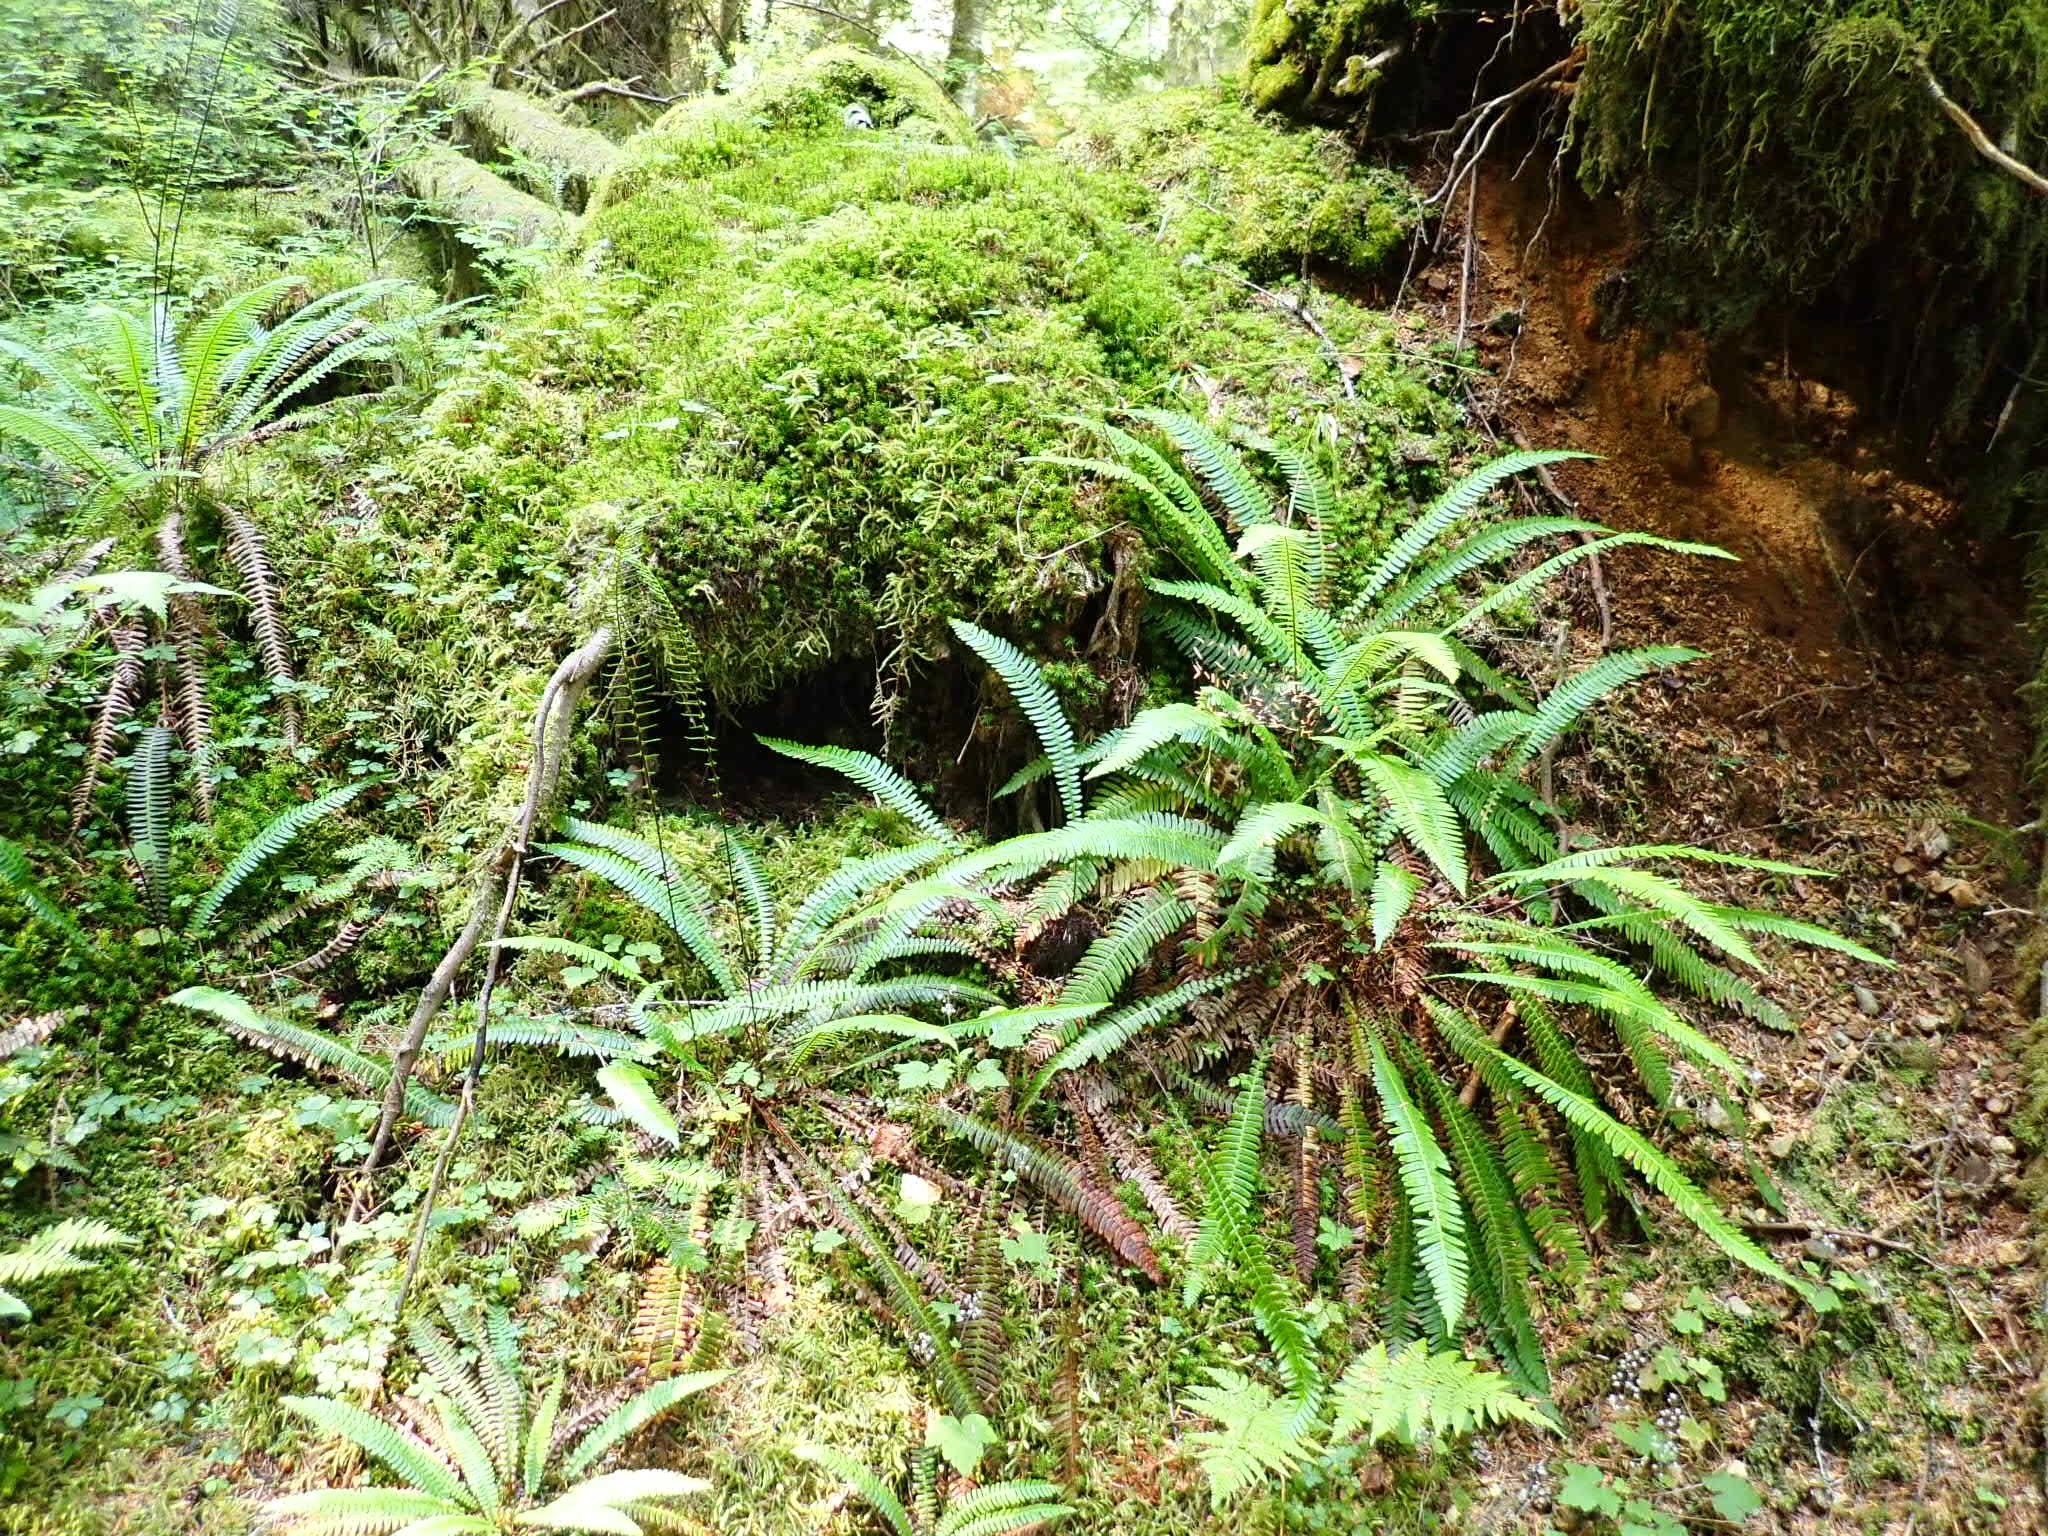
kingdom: Plantae
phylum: Tracheophyta
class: Polypodiopsida
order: Polypodiales
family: Blechnaceae
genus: Struthiopteris
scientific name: Struthiopteris spicant
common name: Deer fern
